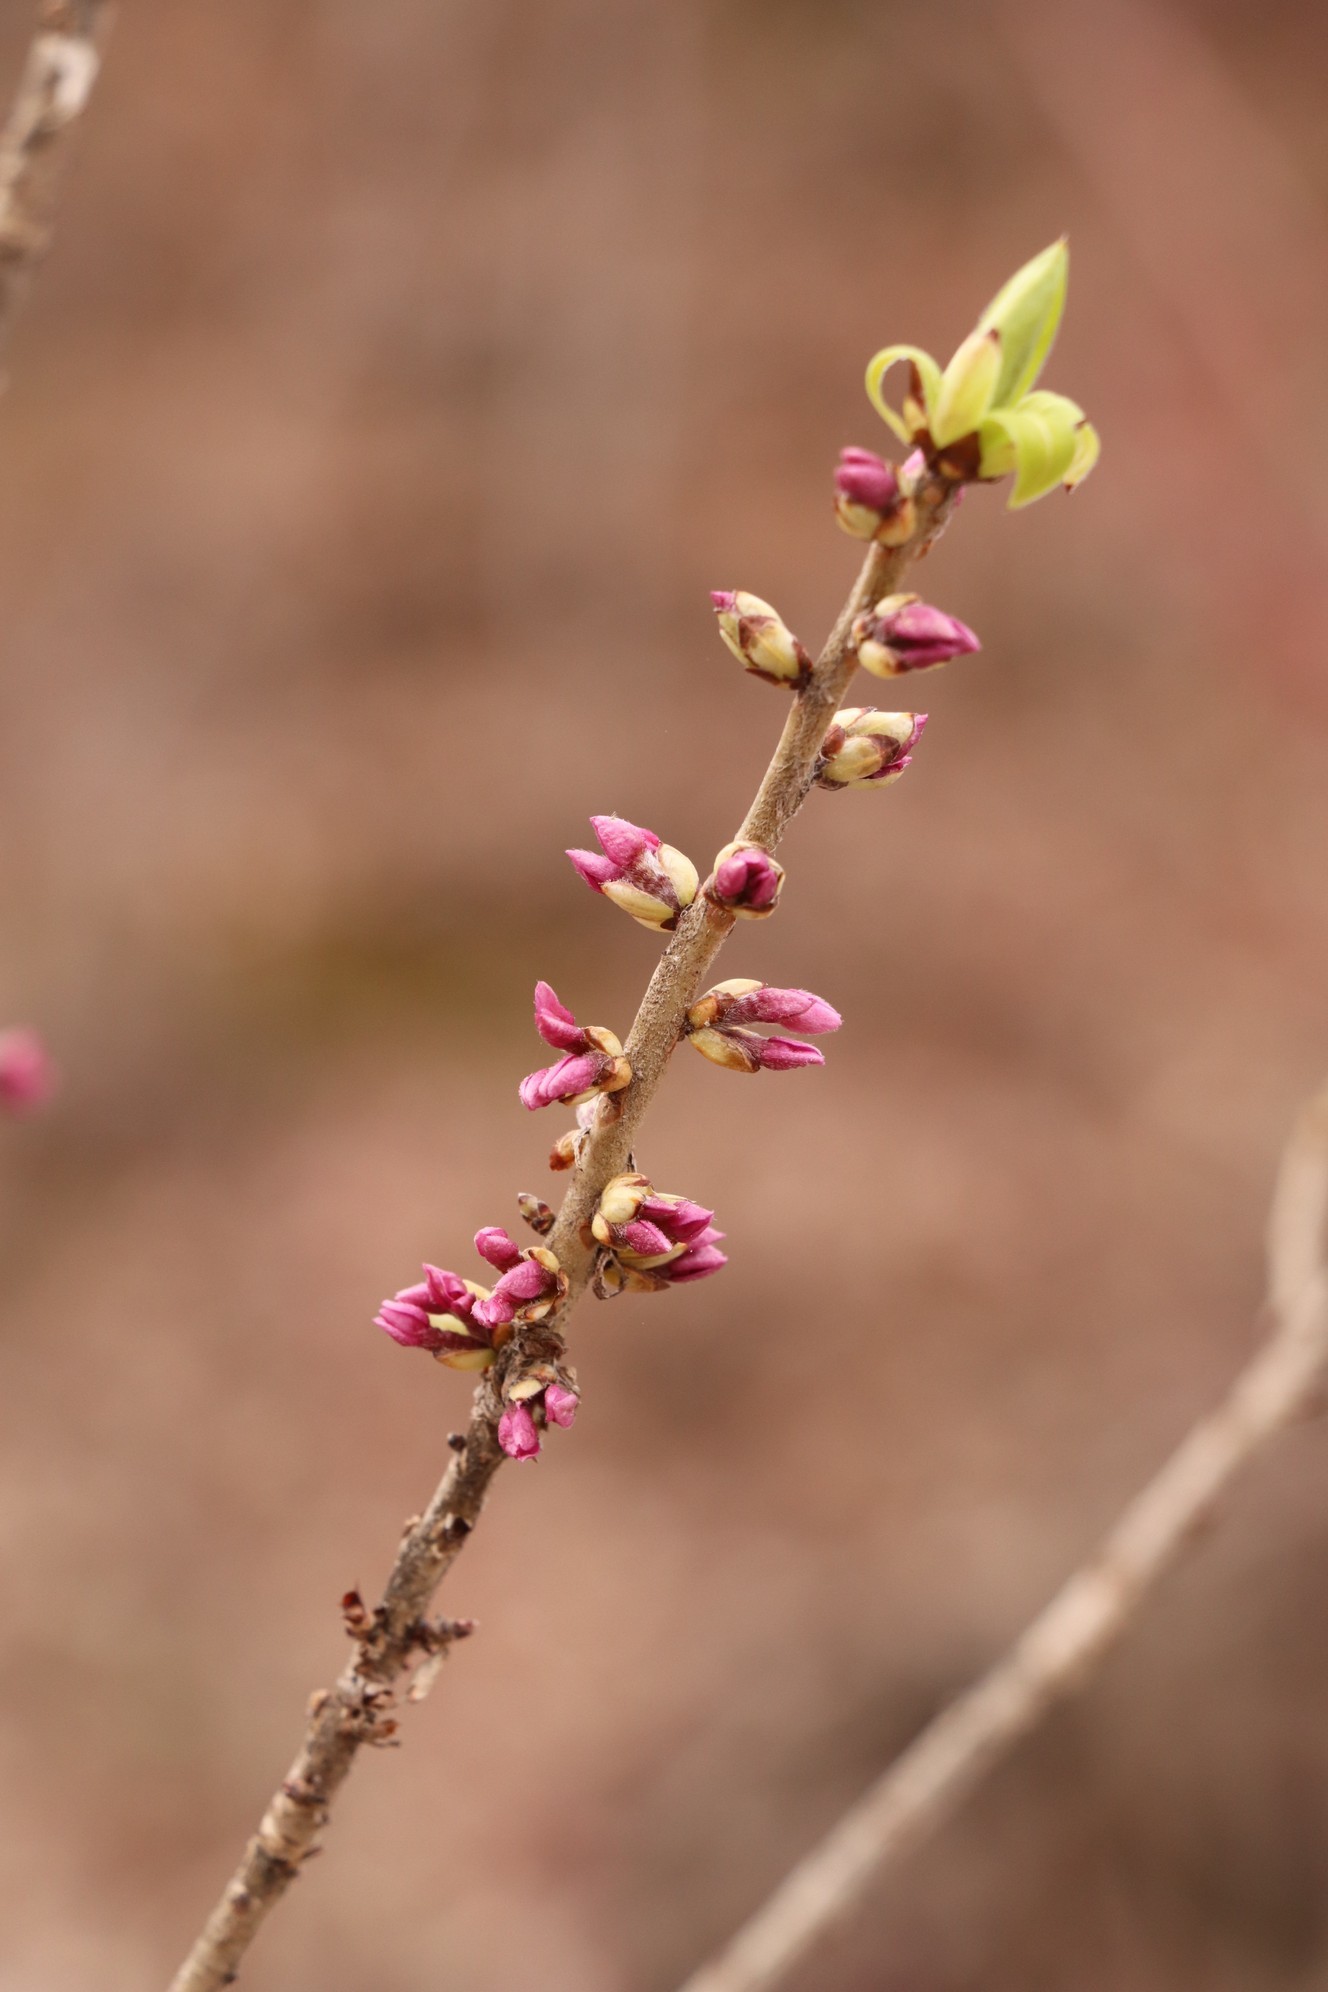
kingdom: Plantae
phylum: Tracheophyta
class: Magnoliopsida
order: Malvales
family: Thymelaeaceae
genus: Daphne
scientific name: Daphne mezereum
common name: Mezereon
